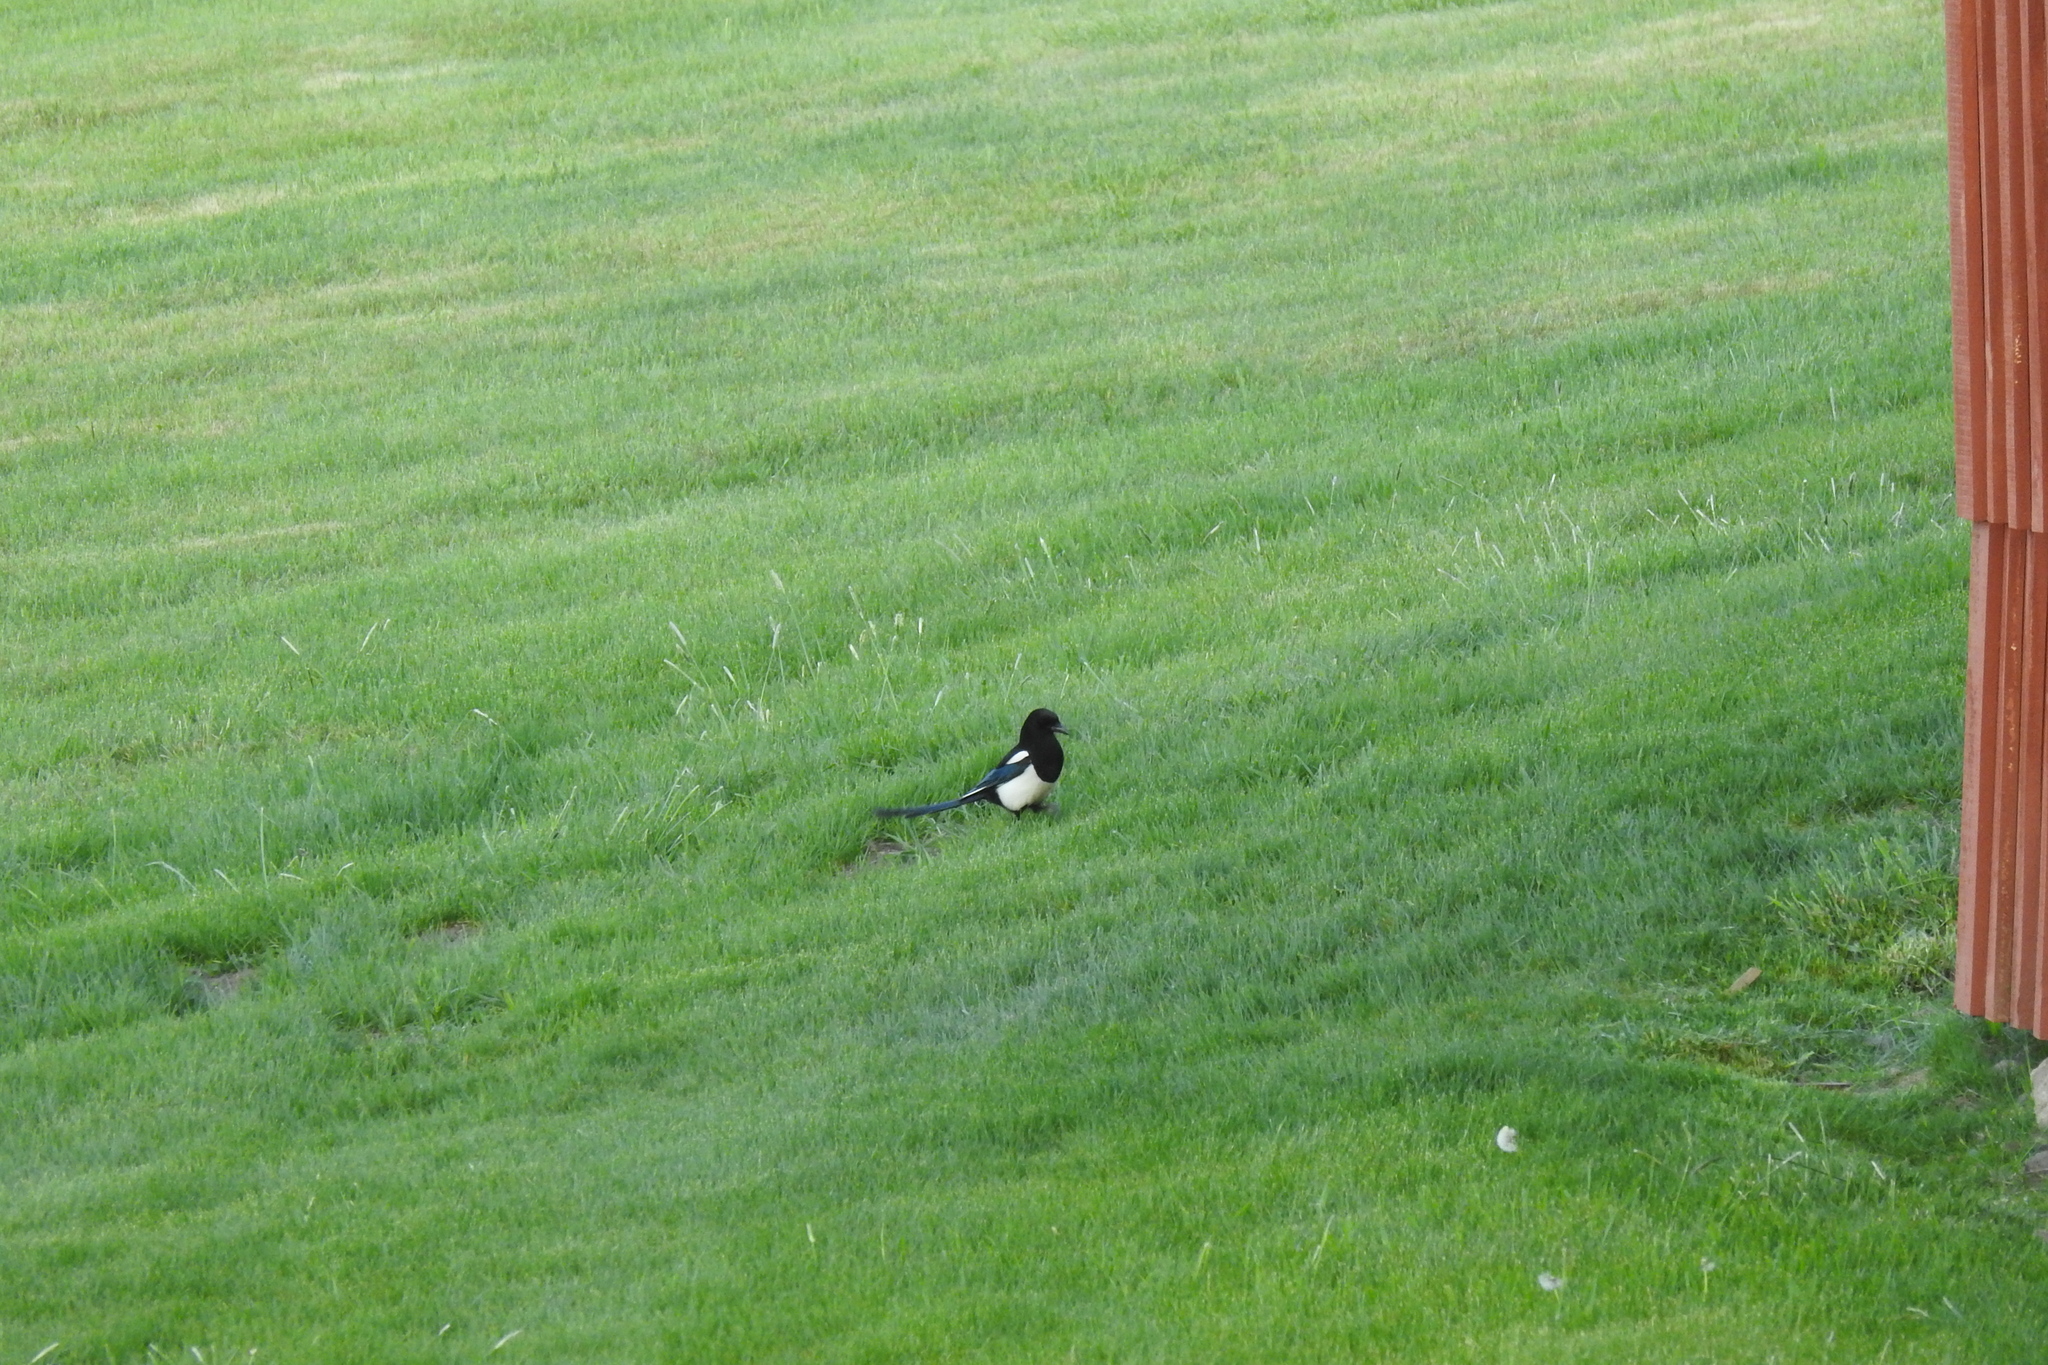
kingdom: Animalia
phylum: Chordata
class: Aves
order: Passeriformes
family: Corvidae
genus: Pica
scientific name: Pica hudsonia
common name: Black-billed magpie
